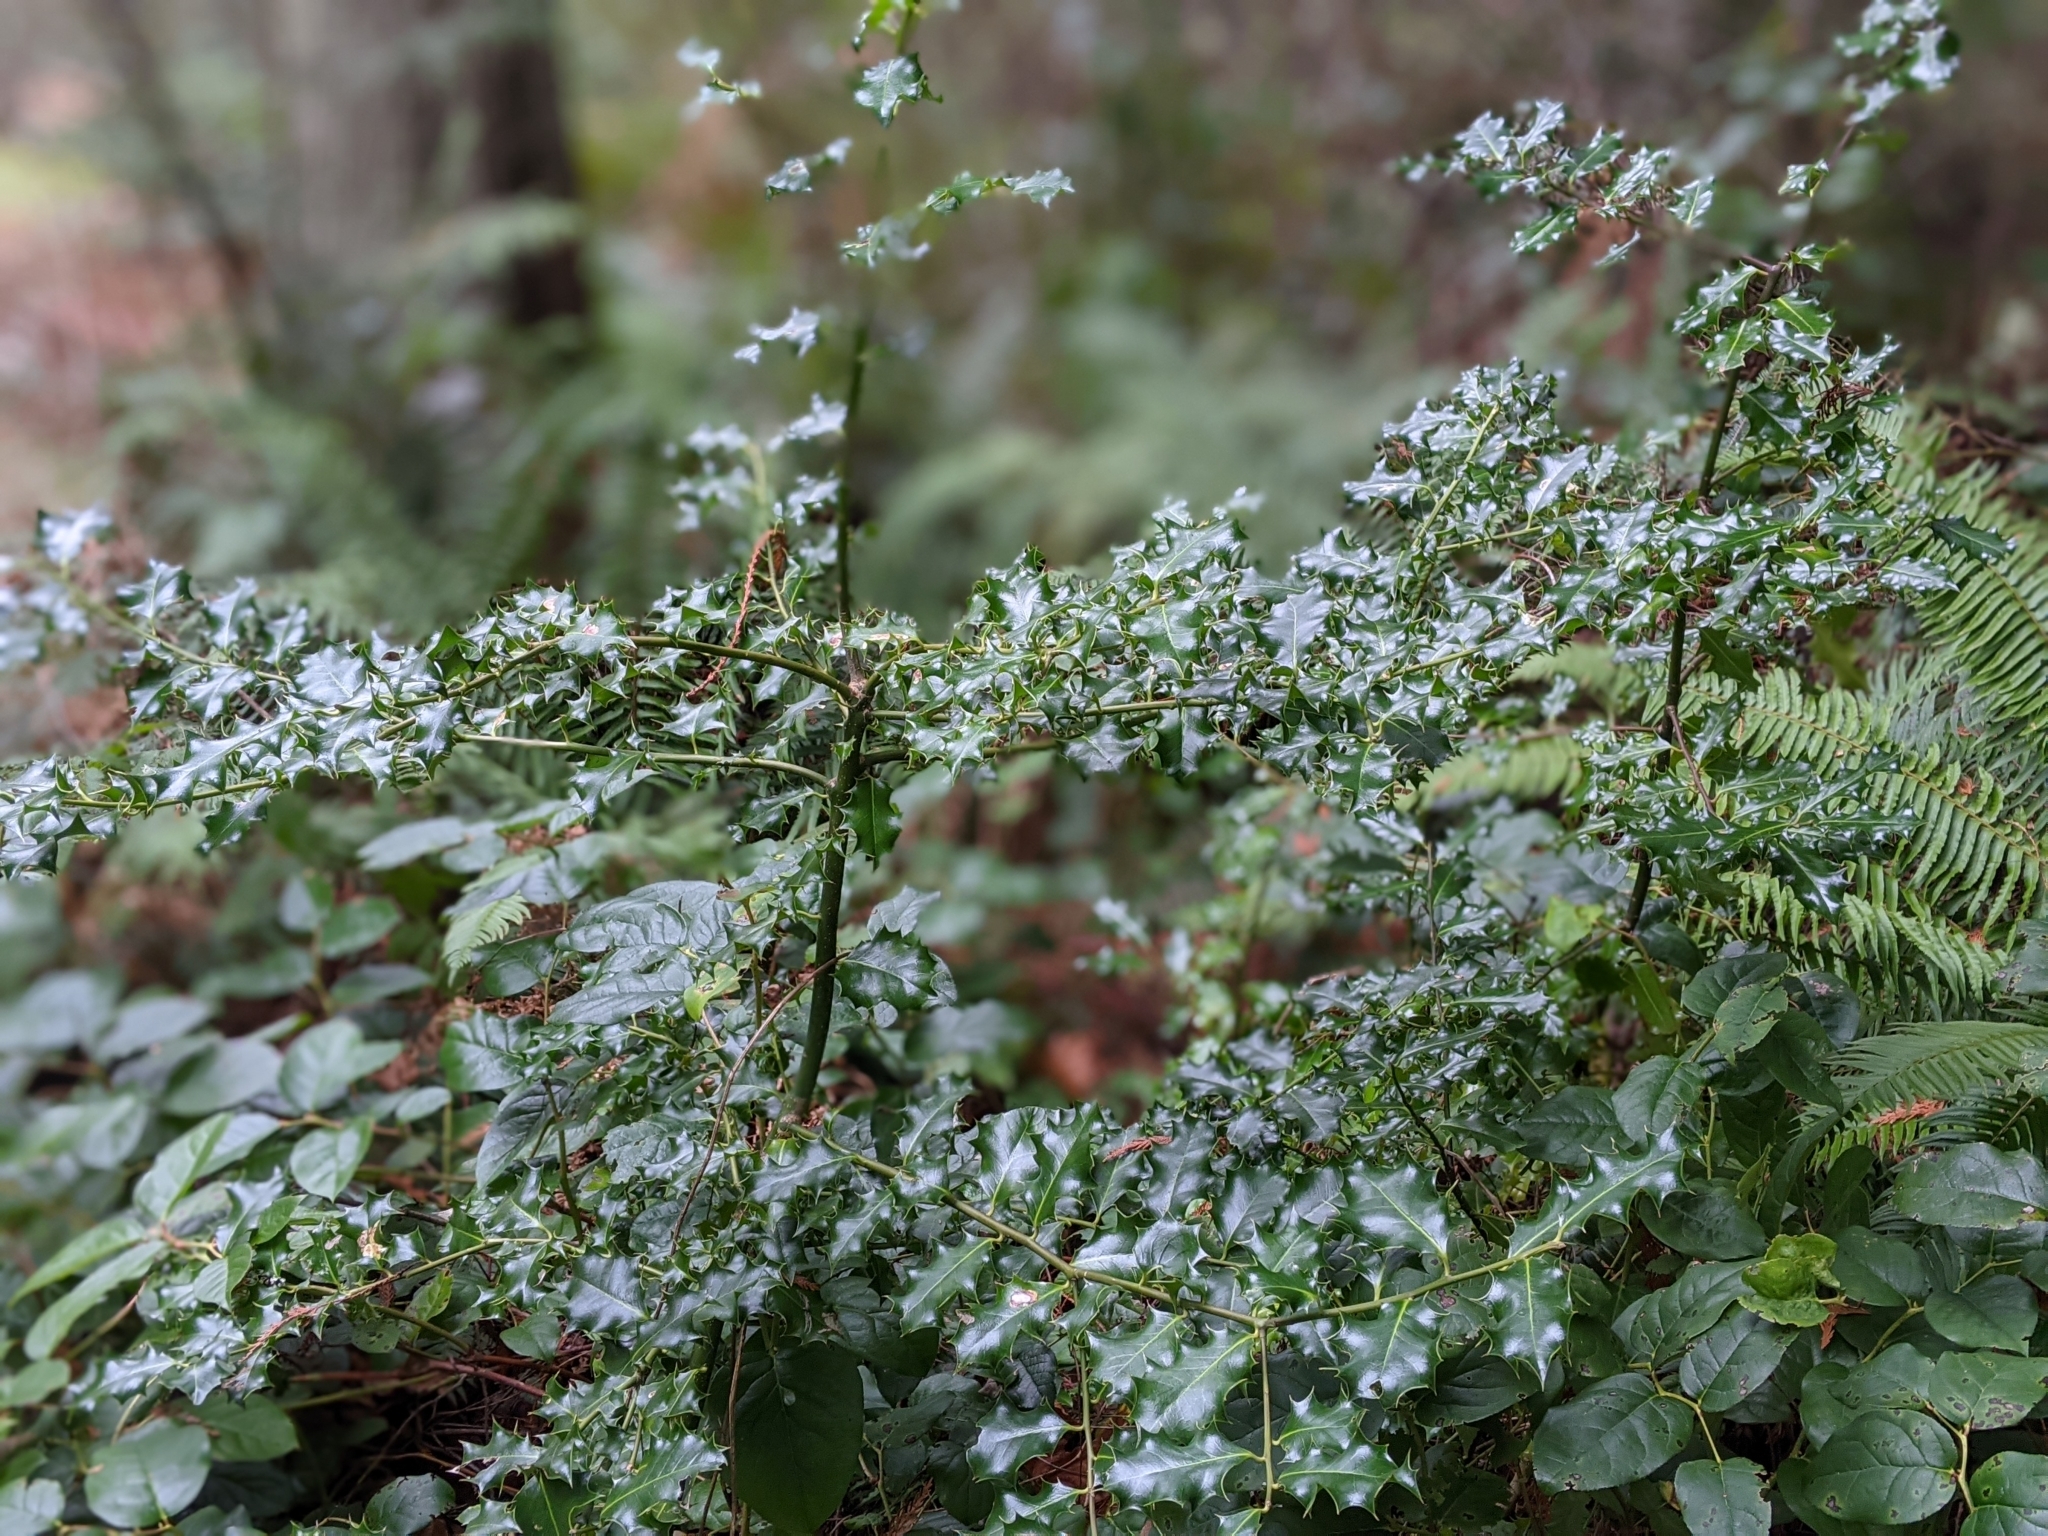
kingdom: Plantae
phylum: Tracheophyta
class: Magnoliopsida
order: Aquifoliales
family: Aquifoliaceae
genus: Ilex
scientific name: Ilex aquifolium
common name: English holly
